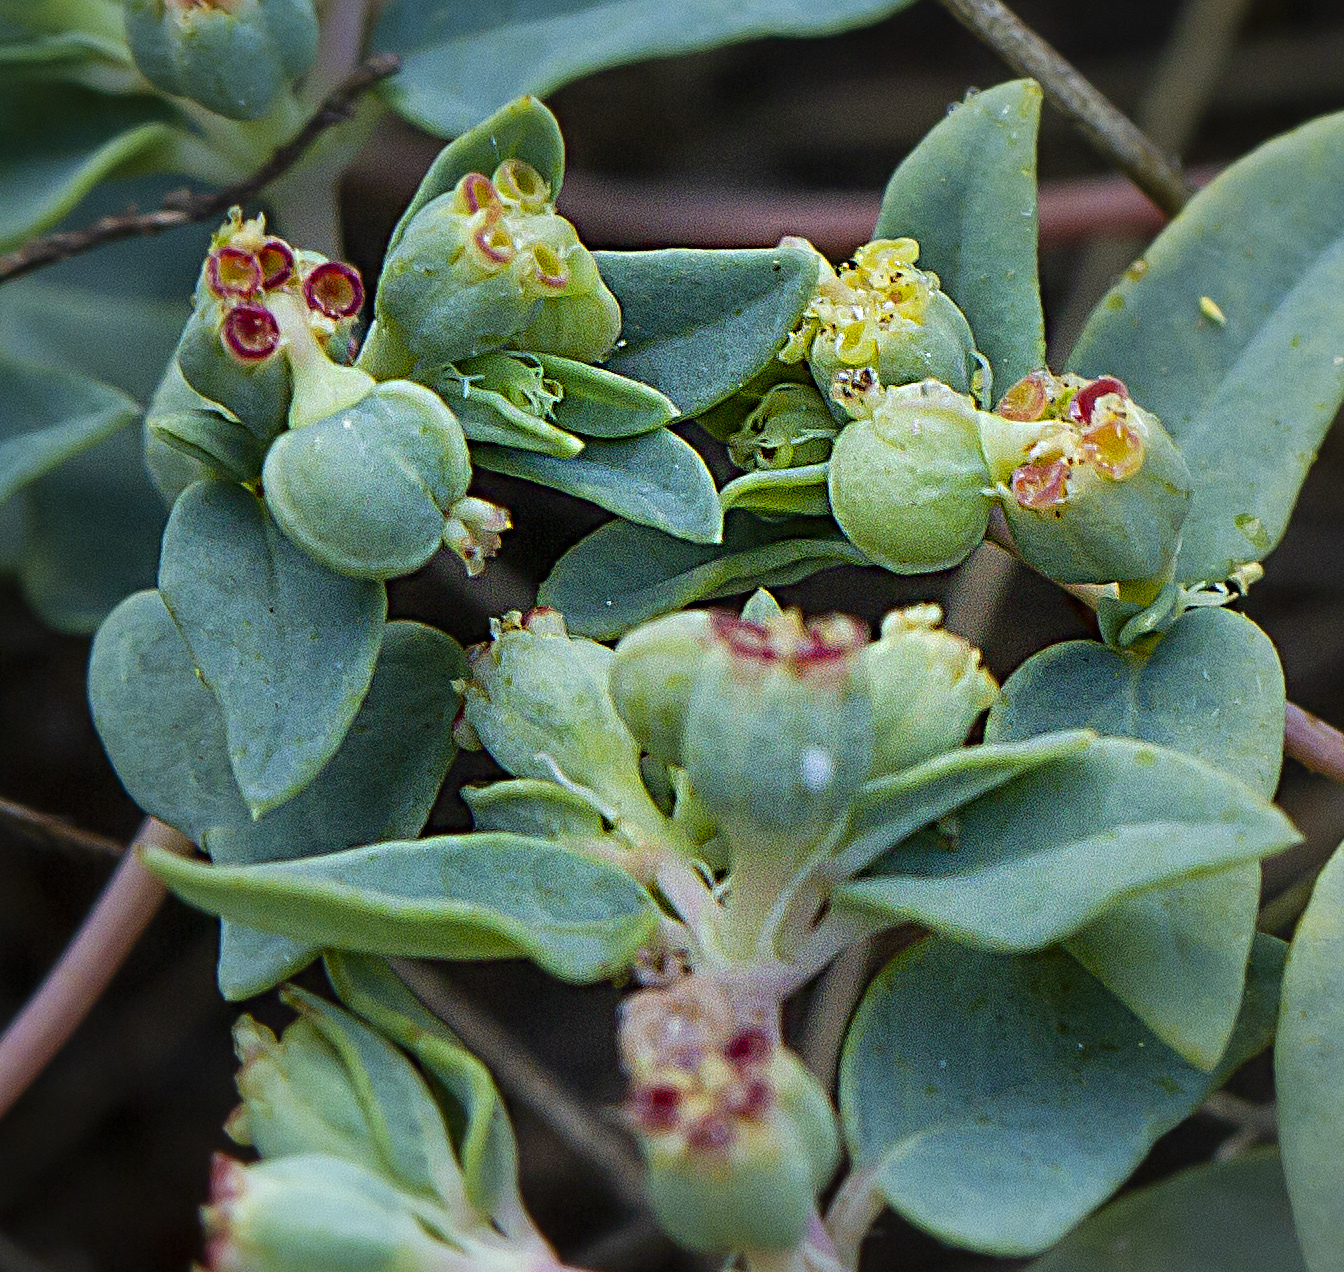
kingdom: Plantae
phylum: Tracheophyta
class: Magnoliopsida
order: Malpighiales
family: Euphorbiaceae
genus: Euphorbia
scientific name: Euphorbia ocellata
